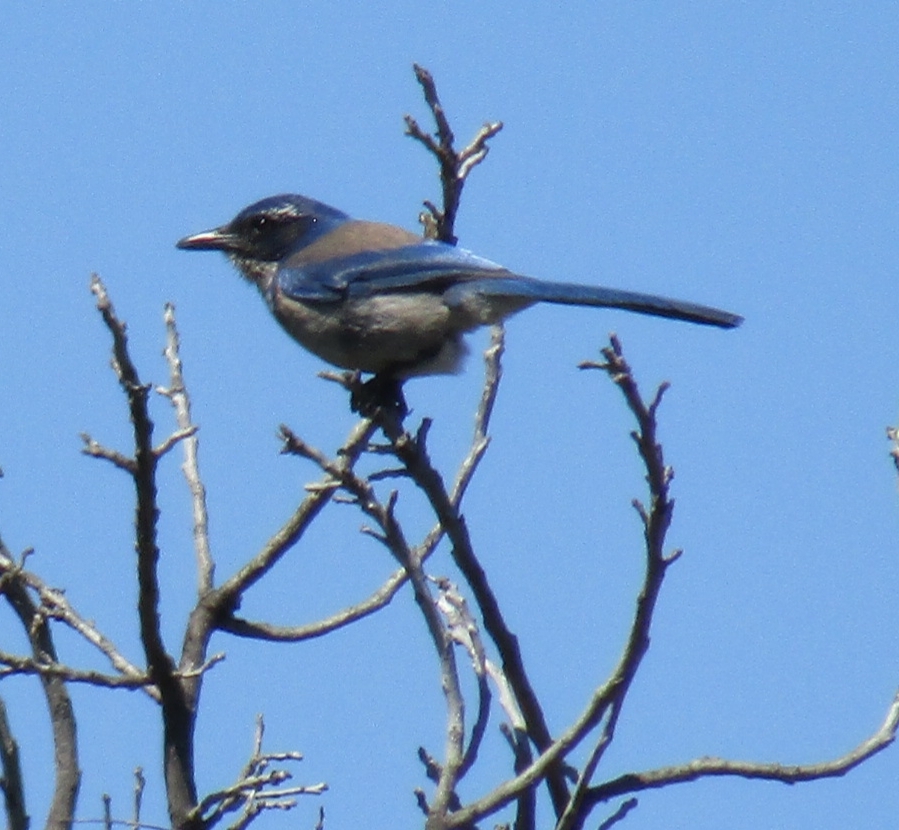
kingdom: Animalia
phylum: Chordata
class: Aves
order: Passeriformes
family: Corvidae
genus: Aphelocoma
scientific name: Aphelocoma californica
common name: California scrub-jay
